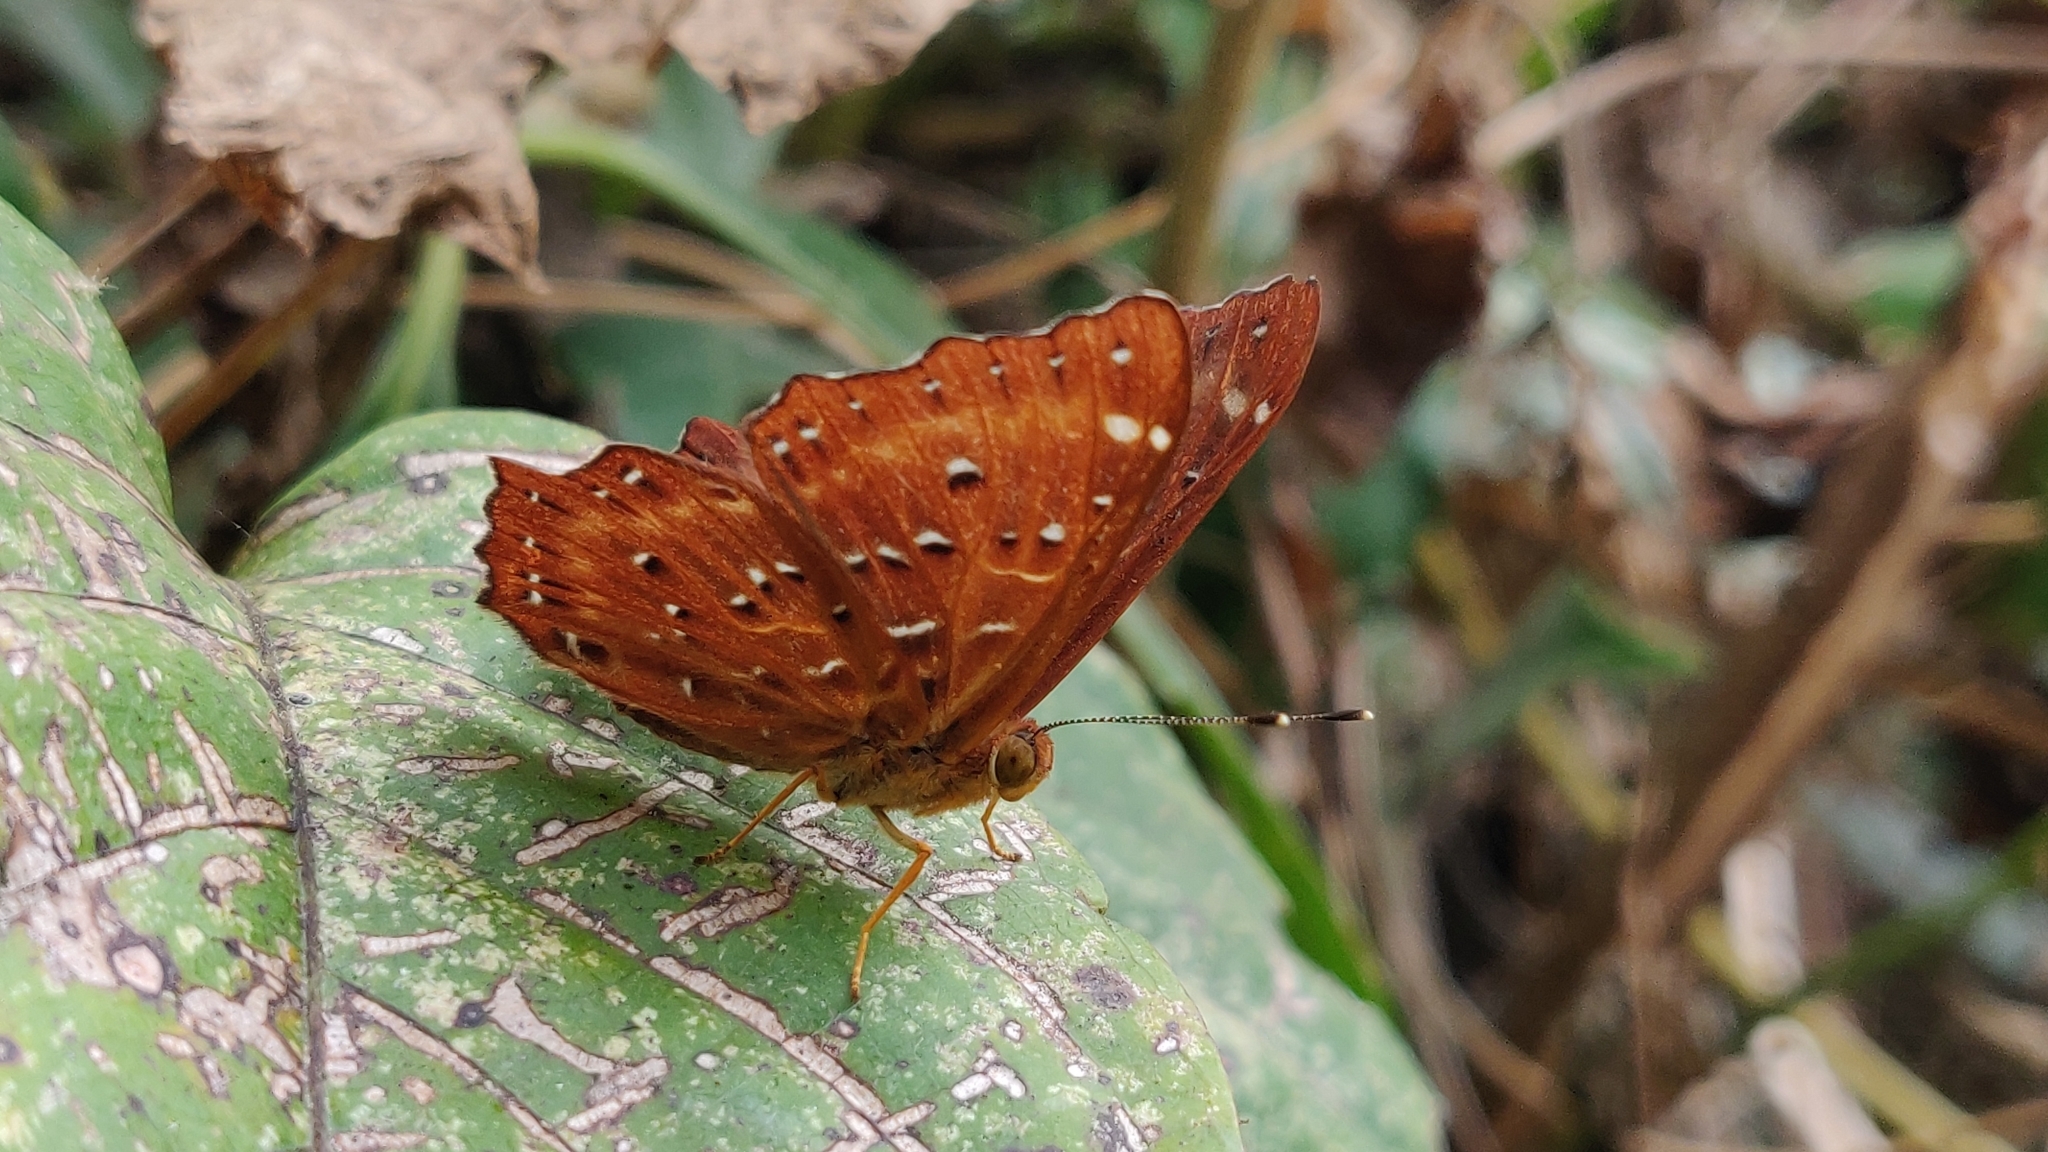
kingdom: Animalia
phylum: Arthropoda
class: Insecta
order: Lepidoptera
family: Riodinidae
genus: Zemeros
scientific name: Zemeros flegyas
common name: Punchinello
